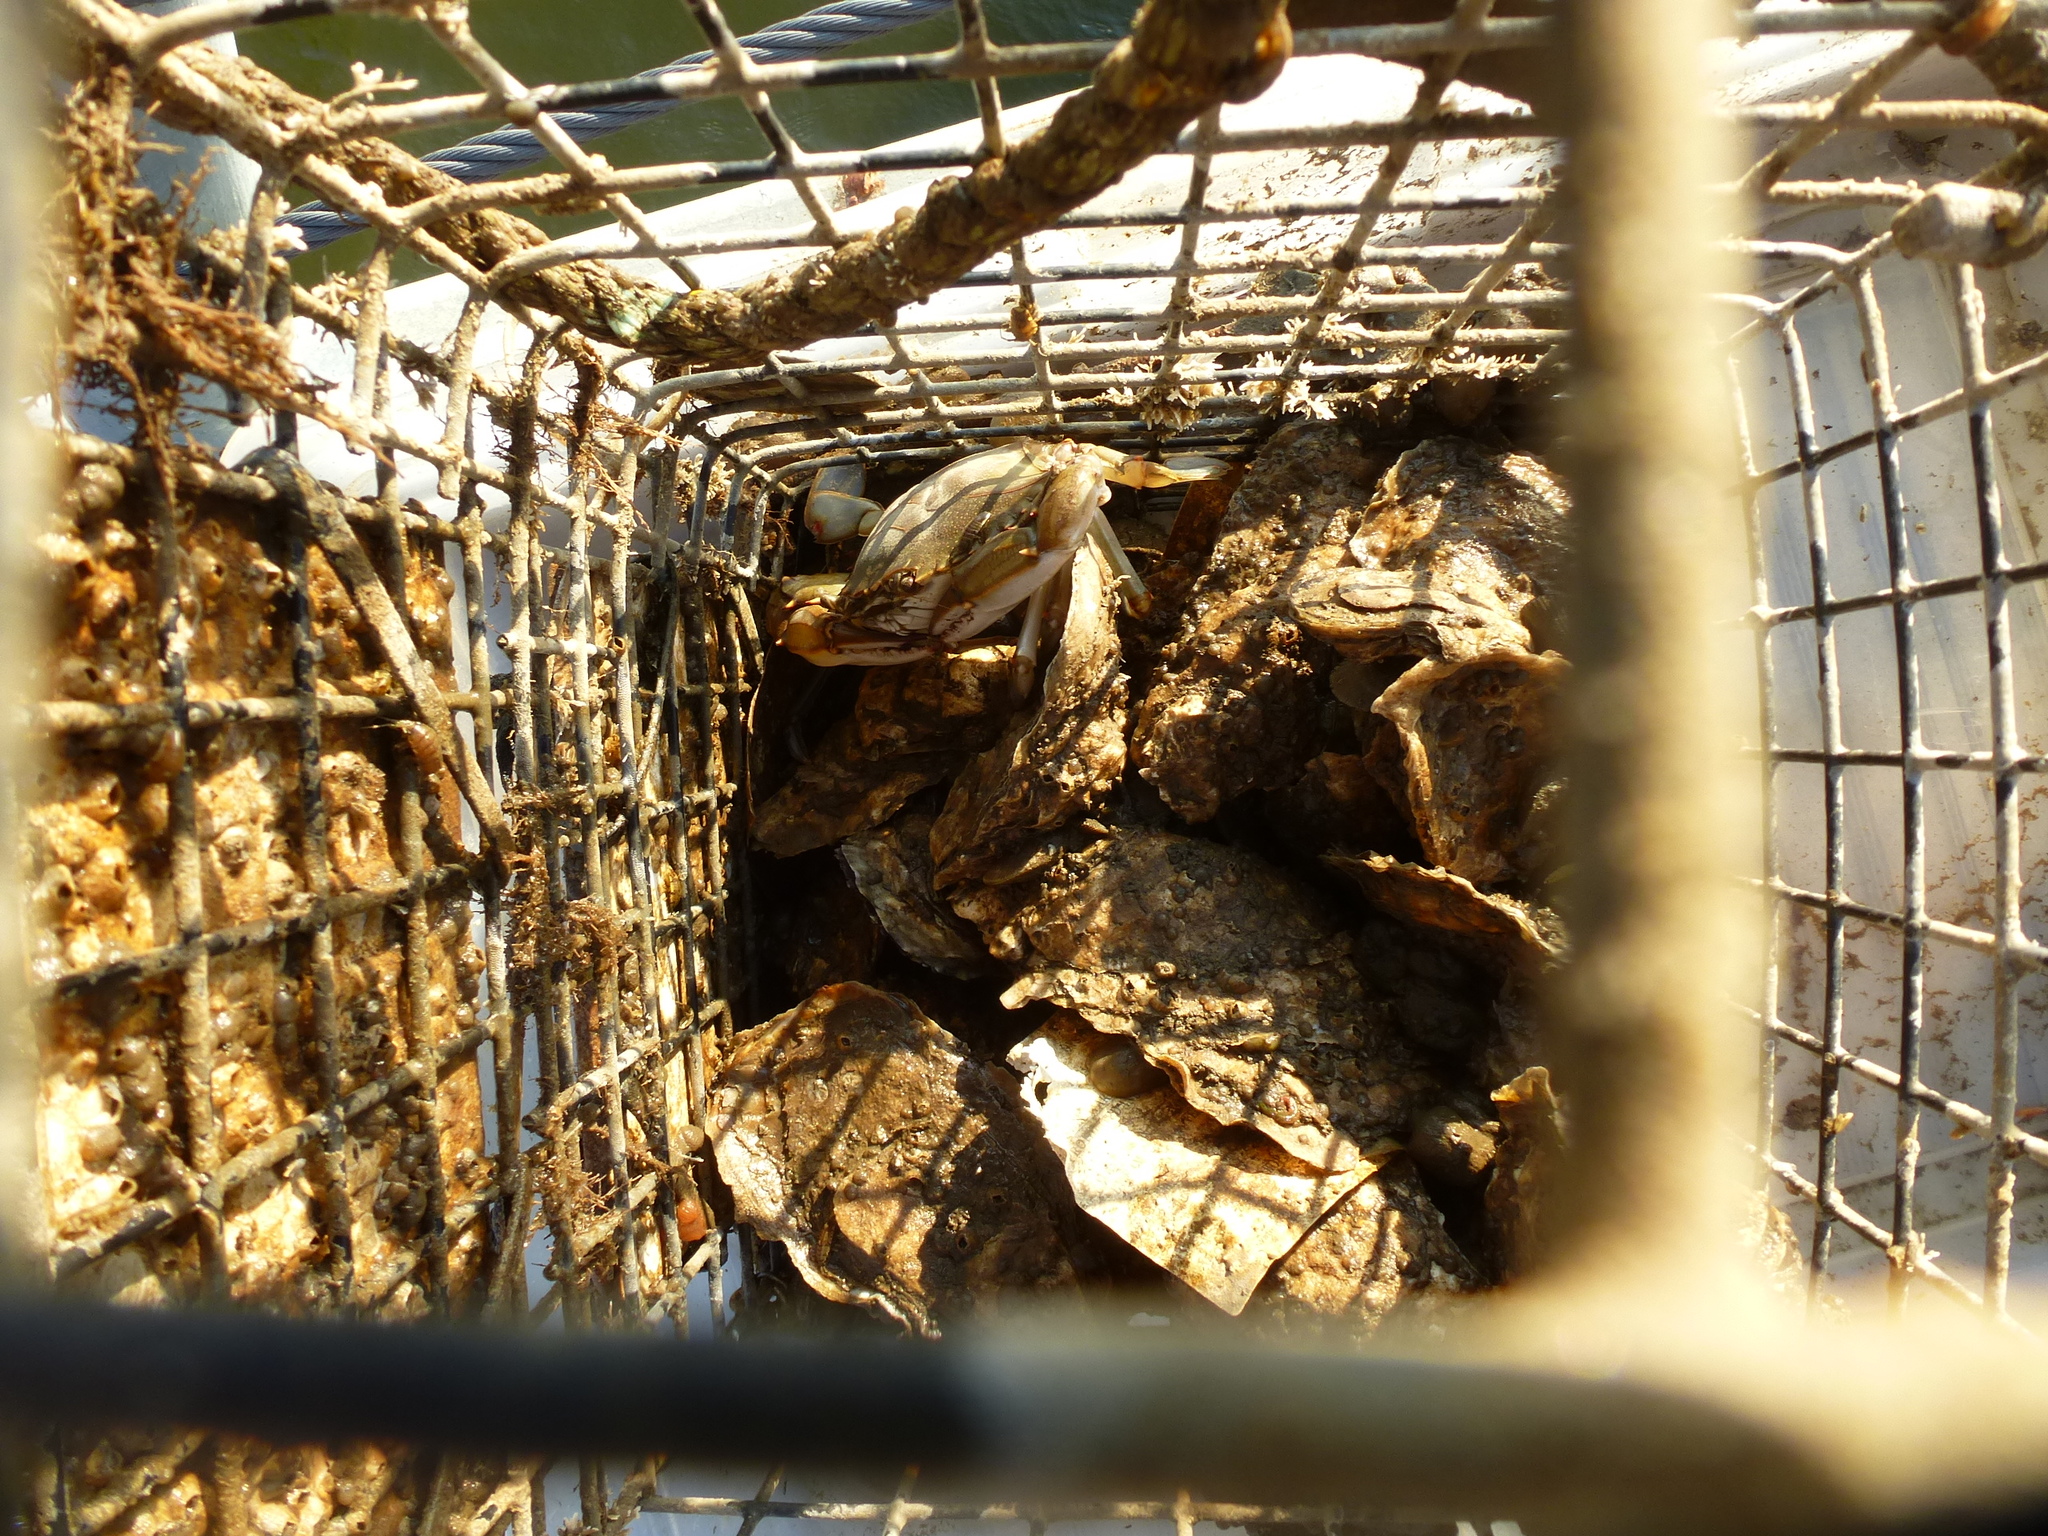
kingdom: Animalia
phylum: Arthropoda
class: Malacostraca
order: Decapoda
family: Portunidae
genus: Callinectes
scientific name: Callinectes sapidus
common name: Blue crab
